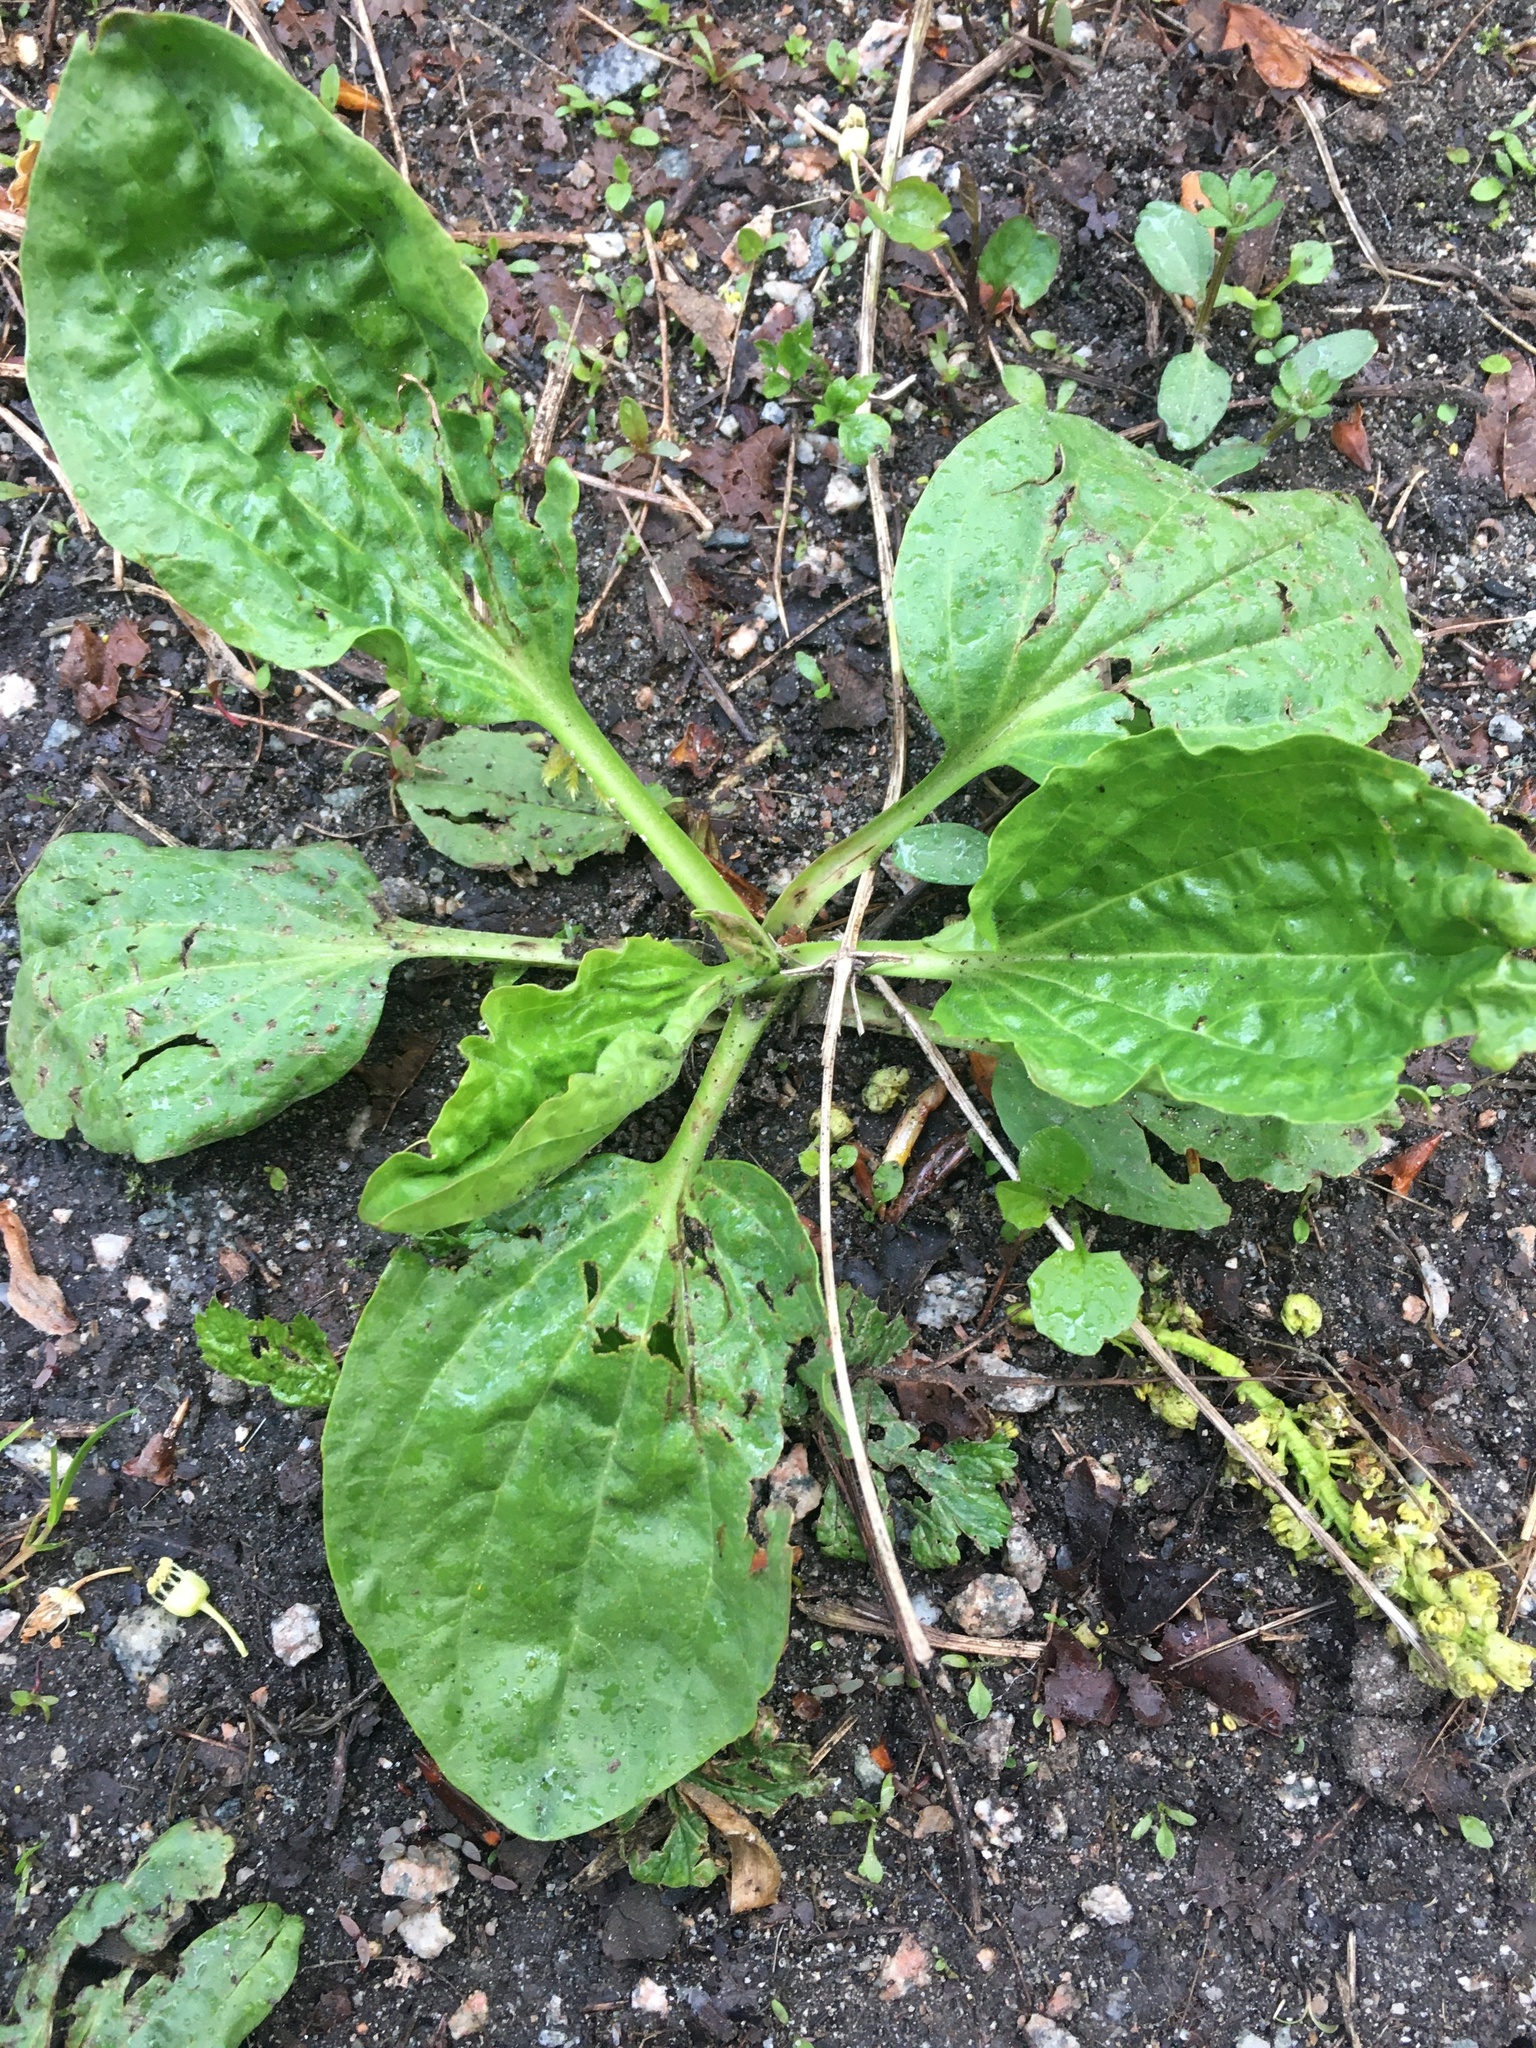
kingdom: Plantae
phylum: Tracheophyta
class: Magnoliopsida
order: Lamiales
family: Plantaginaceae
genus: Plantago
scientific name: Plantago major
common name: Common plantain
